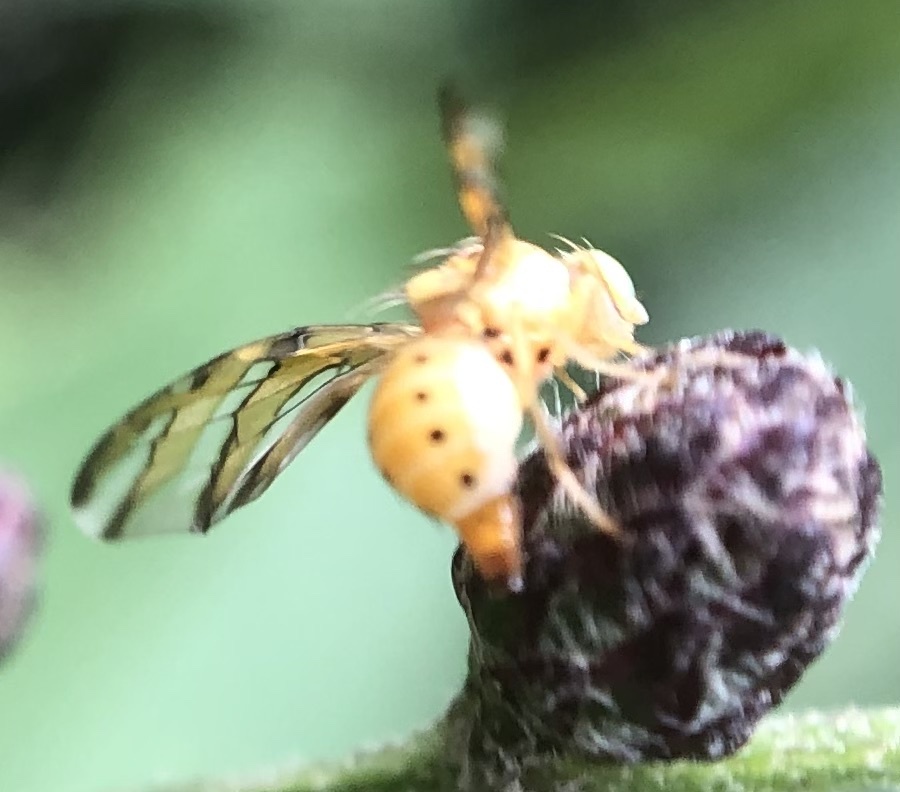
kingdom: Animalia
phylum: Arthropoda
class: Insecta
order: Diptera
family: Tephritidae
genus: Tomoplagia
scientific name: Tomoplagia obliqua
